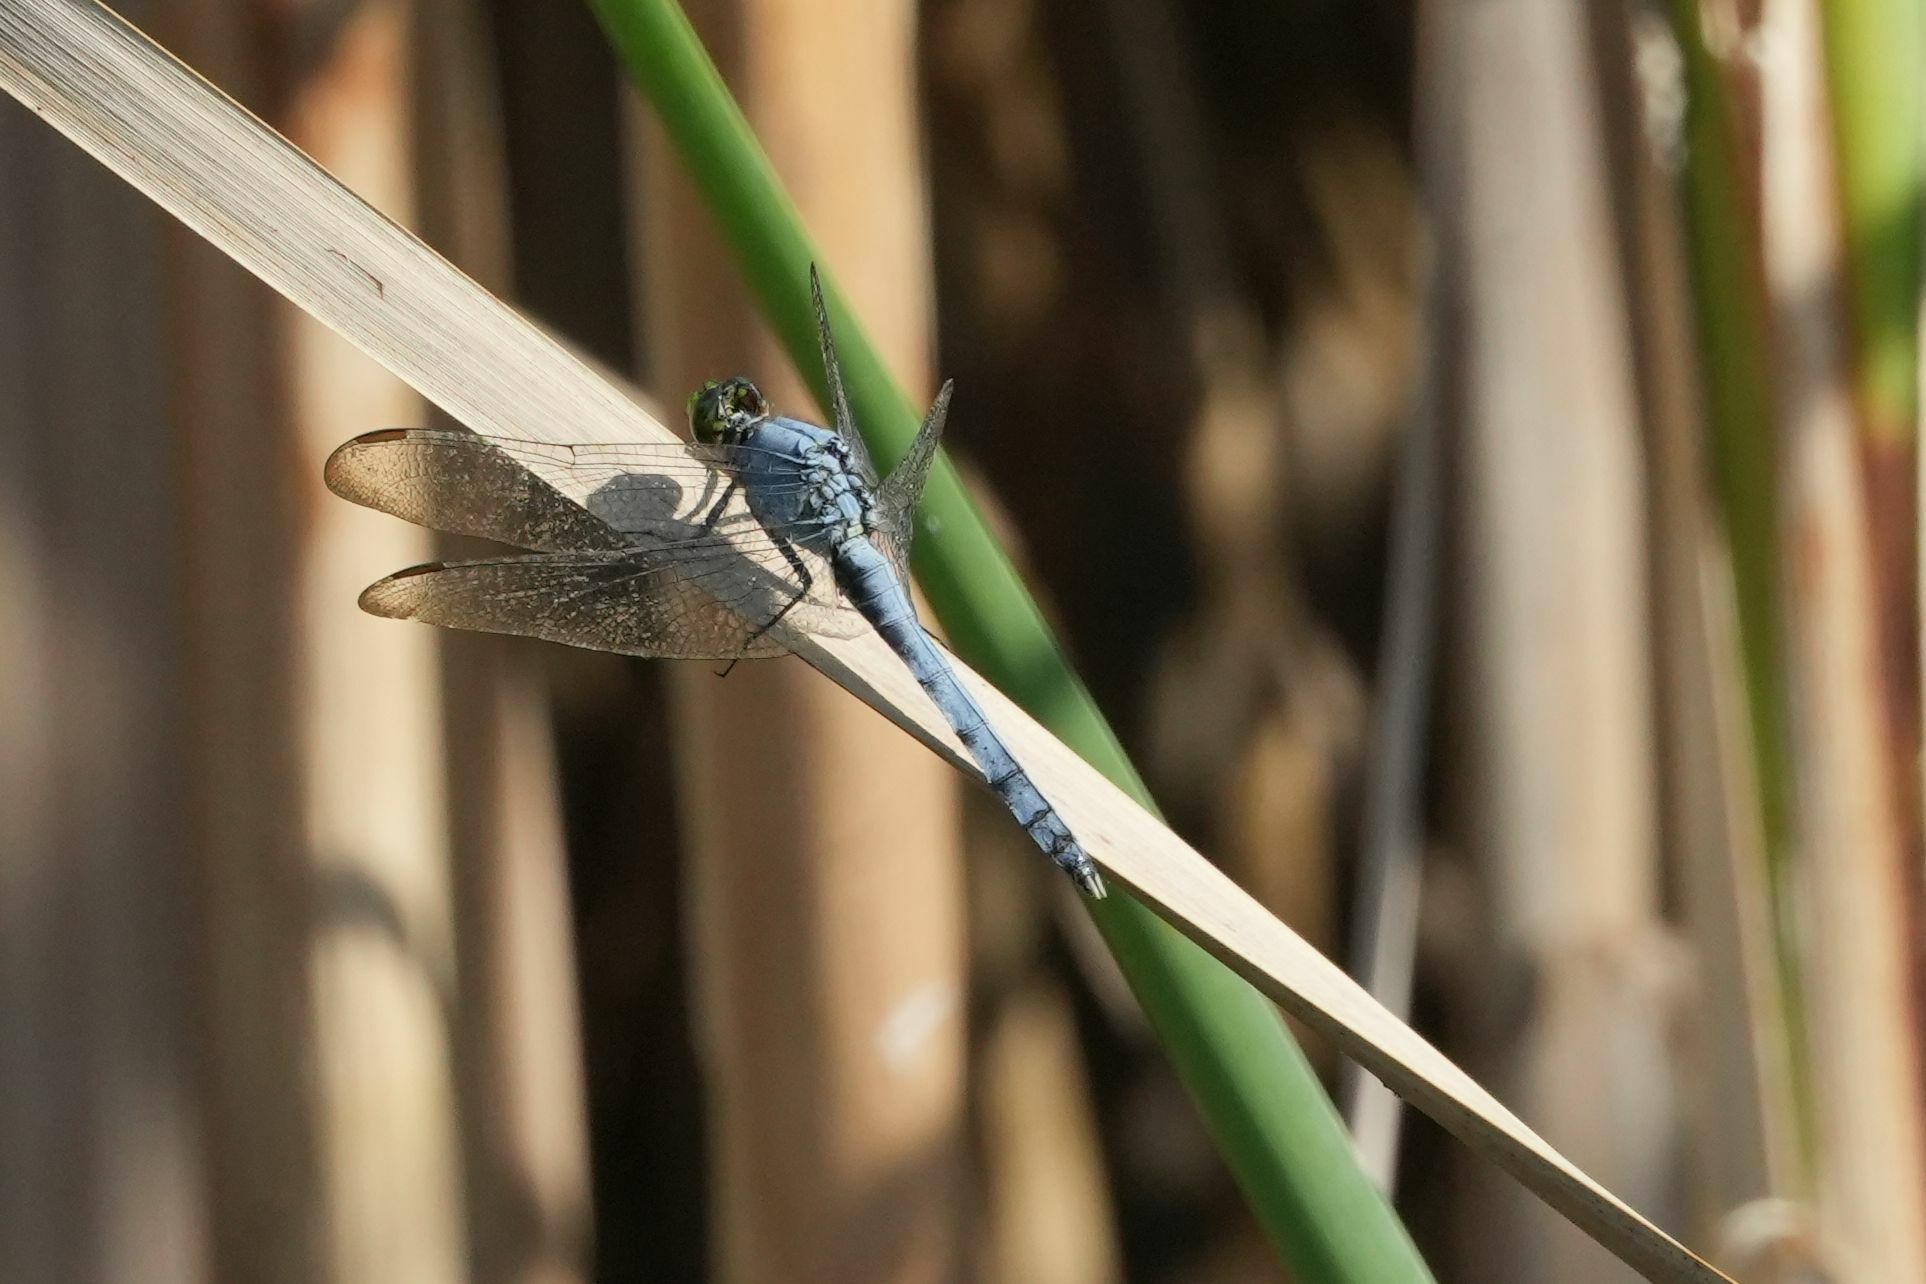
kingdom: Animalia
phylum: Arthropoda
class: Insecta
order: Odonata
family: Libellulidae
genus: Erythemis
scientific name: Erythemis simplicicollis
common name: Eastern pondhawk
